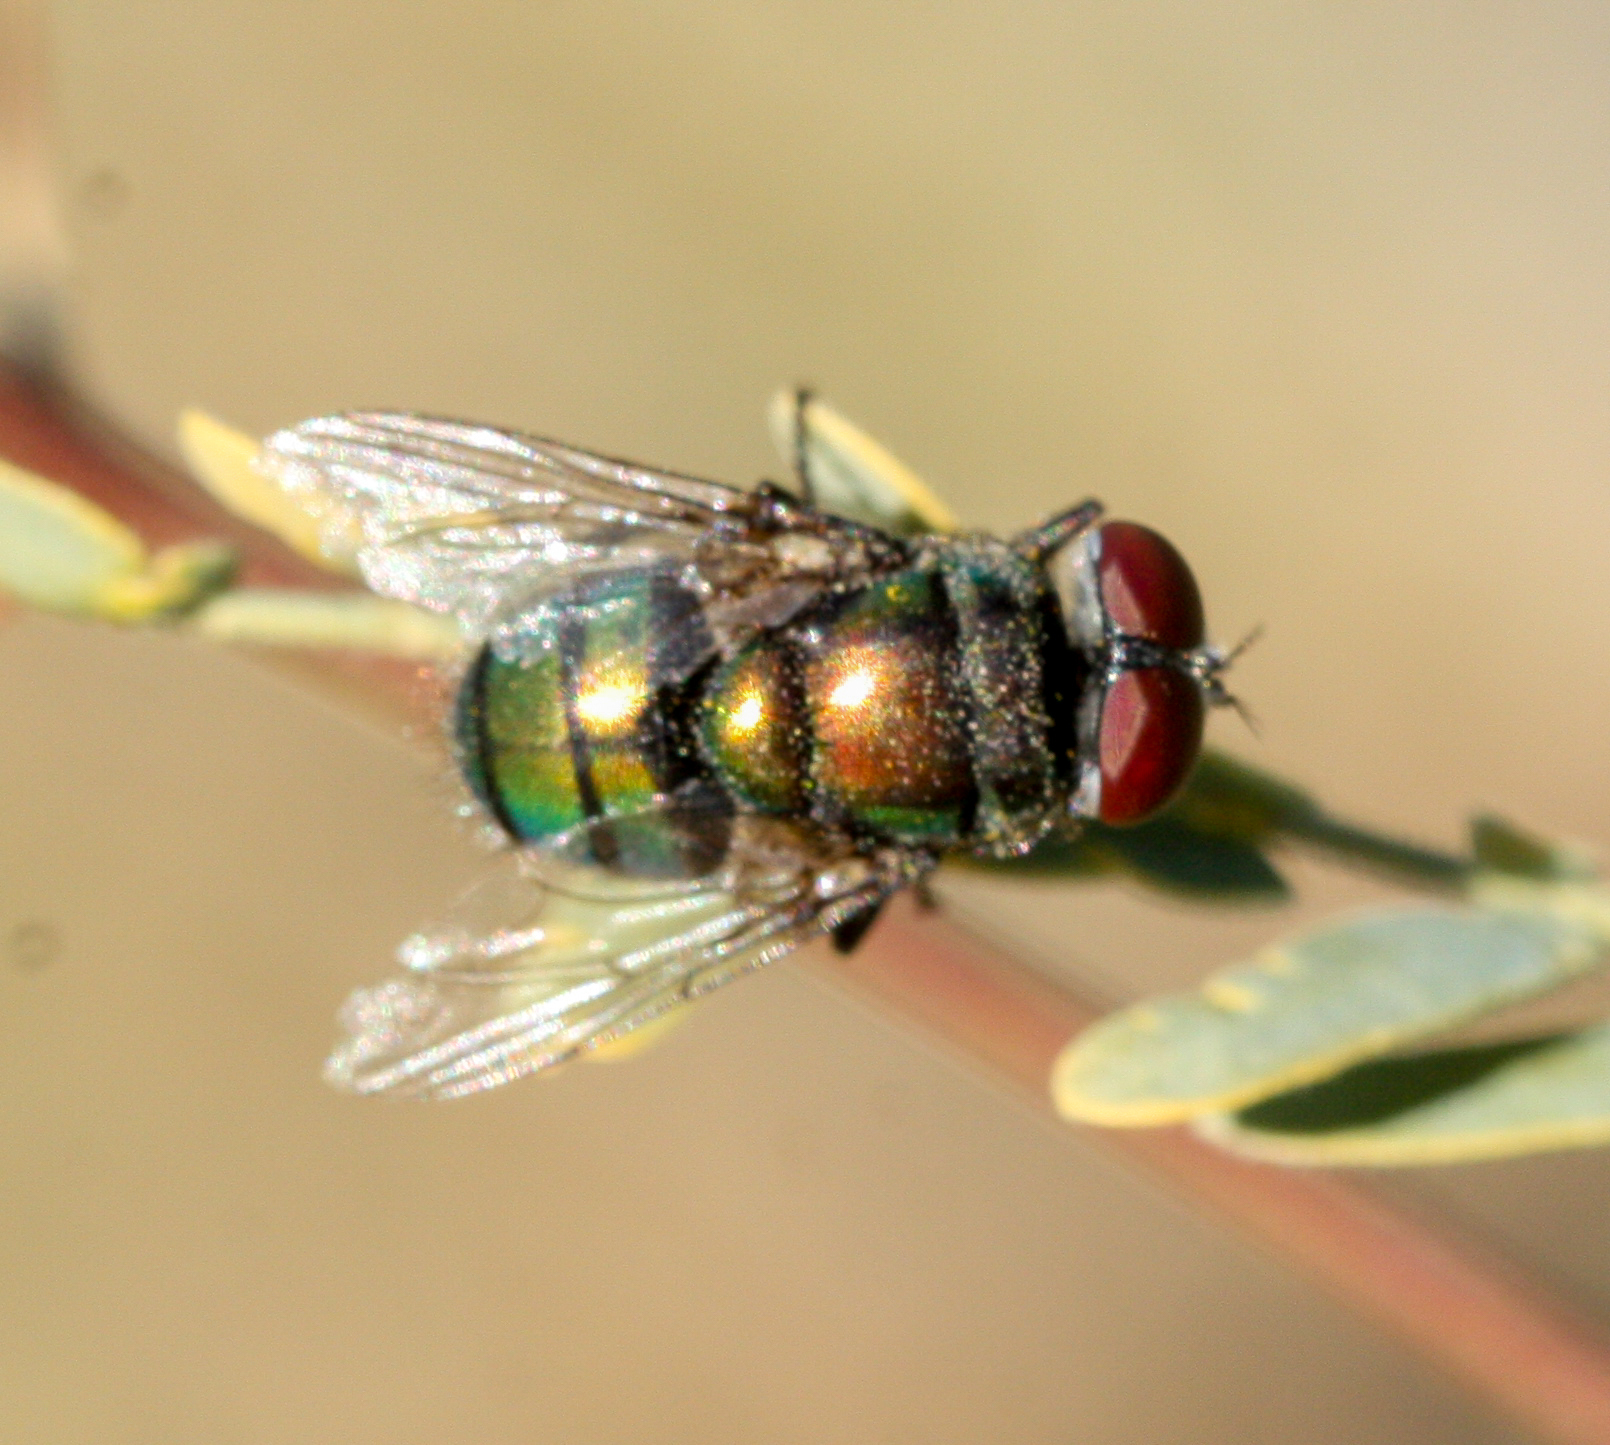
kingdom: Animalia
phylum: Arthropoda
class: Insecta
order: Diptera
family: Calliphoridae
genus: Chrysomya
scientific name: Chrysomya rufifacies
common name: Blow fly
